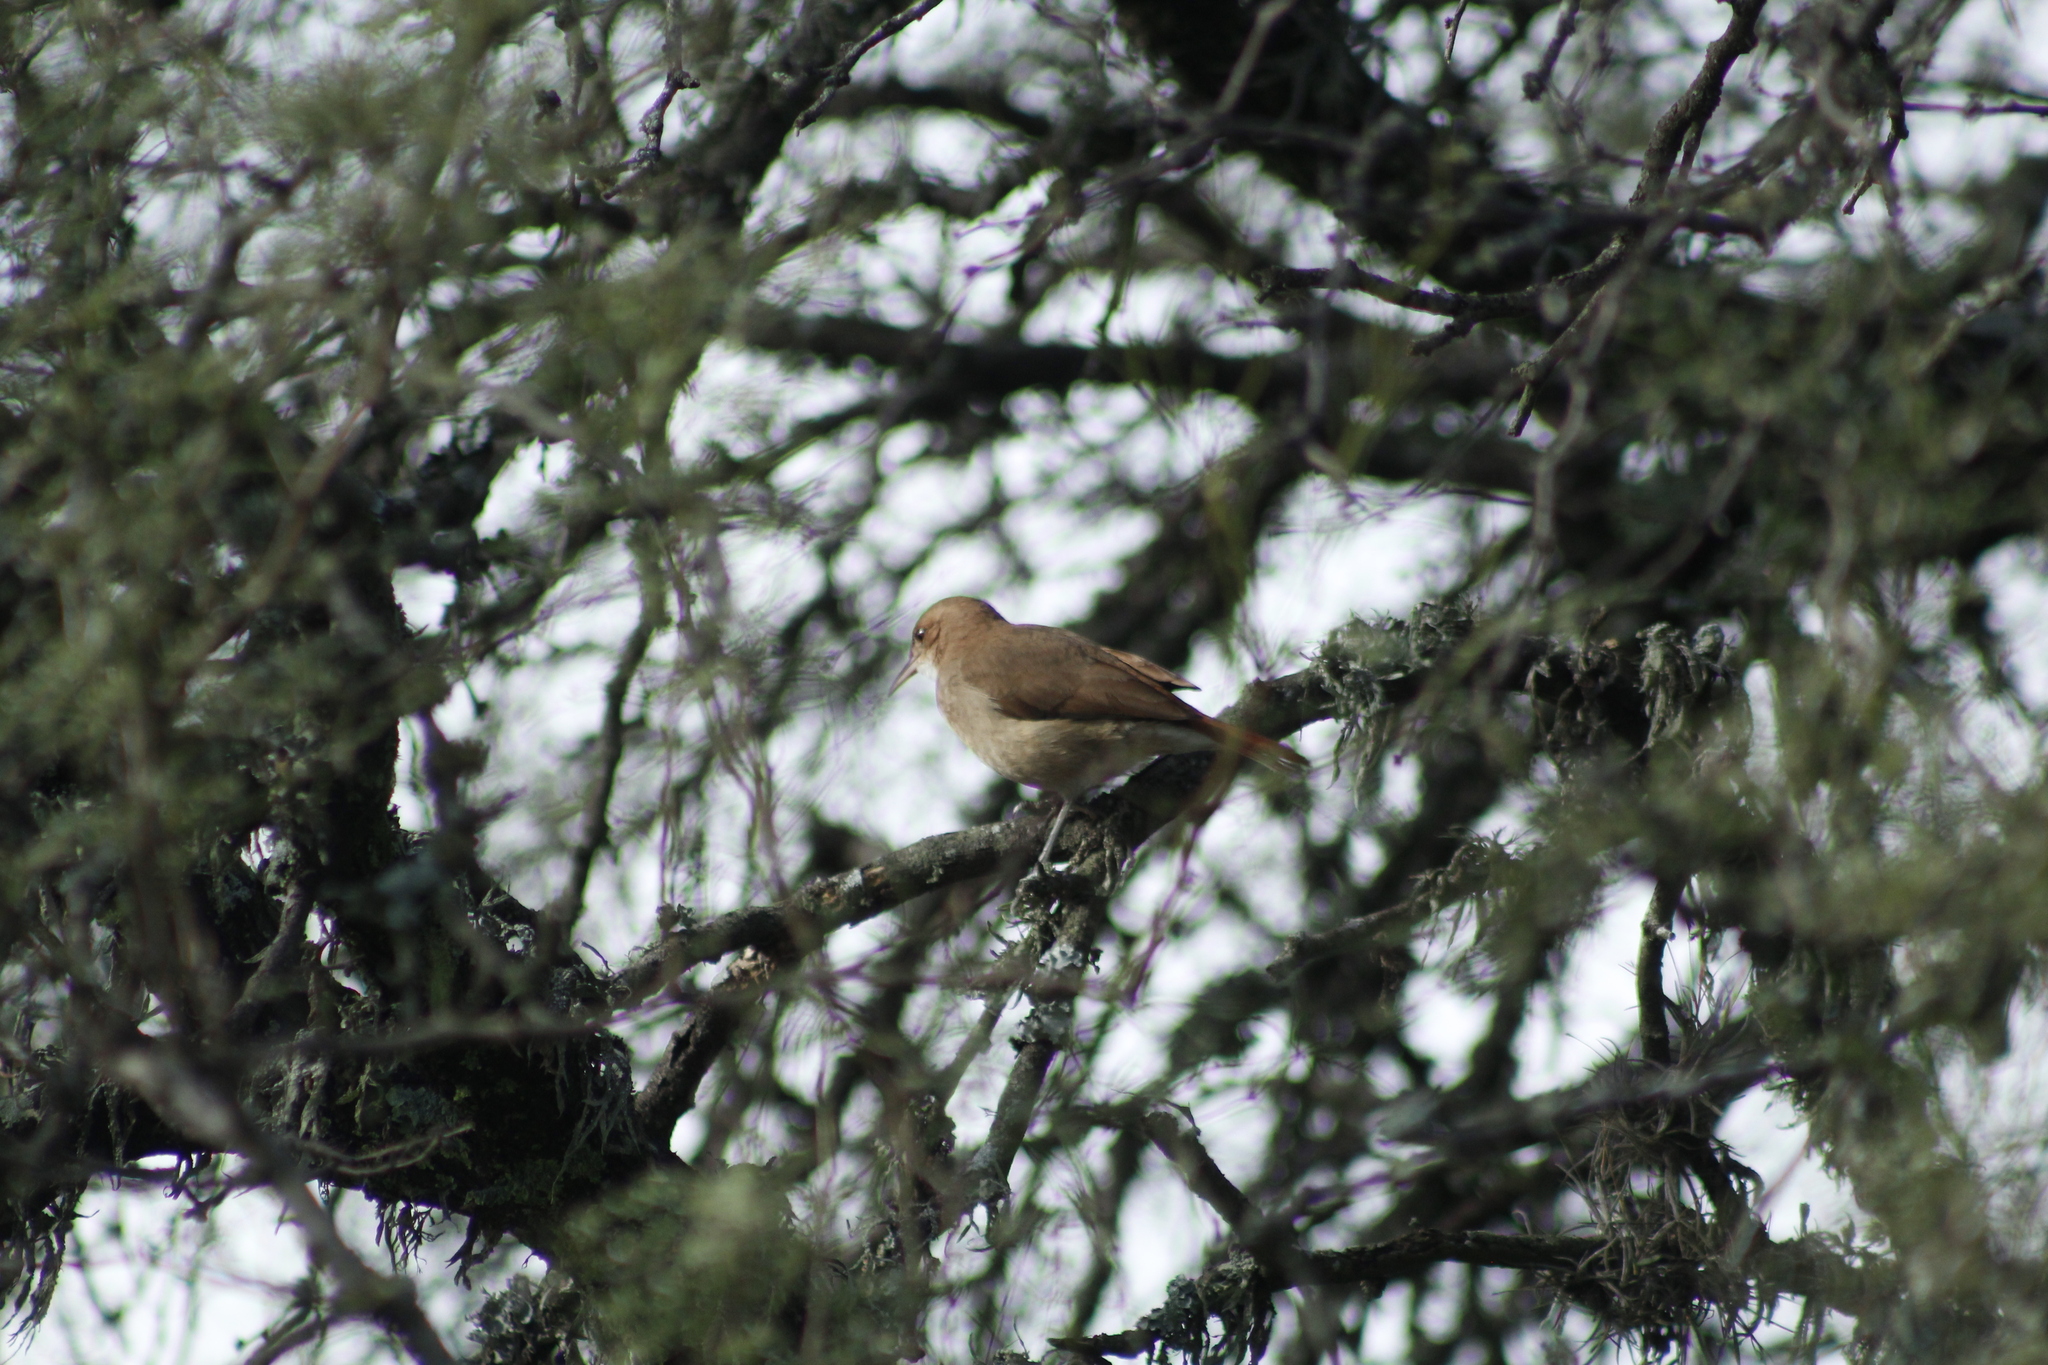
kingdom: Animalia
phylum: Chordata
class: Aves
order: Passeriformes
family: Furnariidae
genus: Furnarius
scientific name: Furnarius rufus
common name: Rufous hornero
